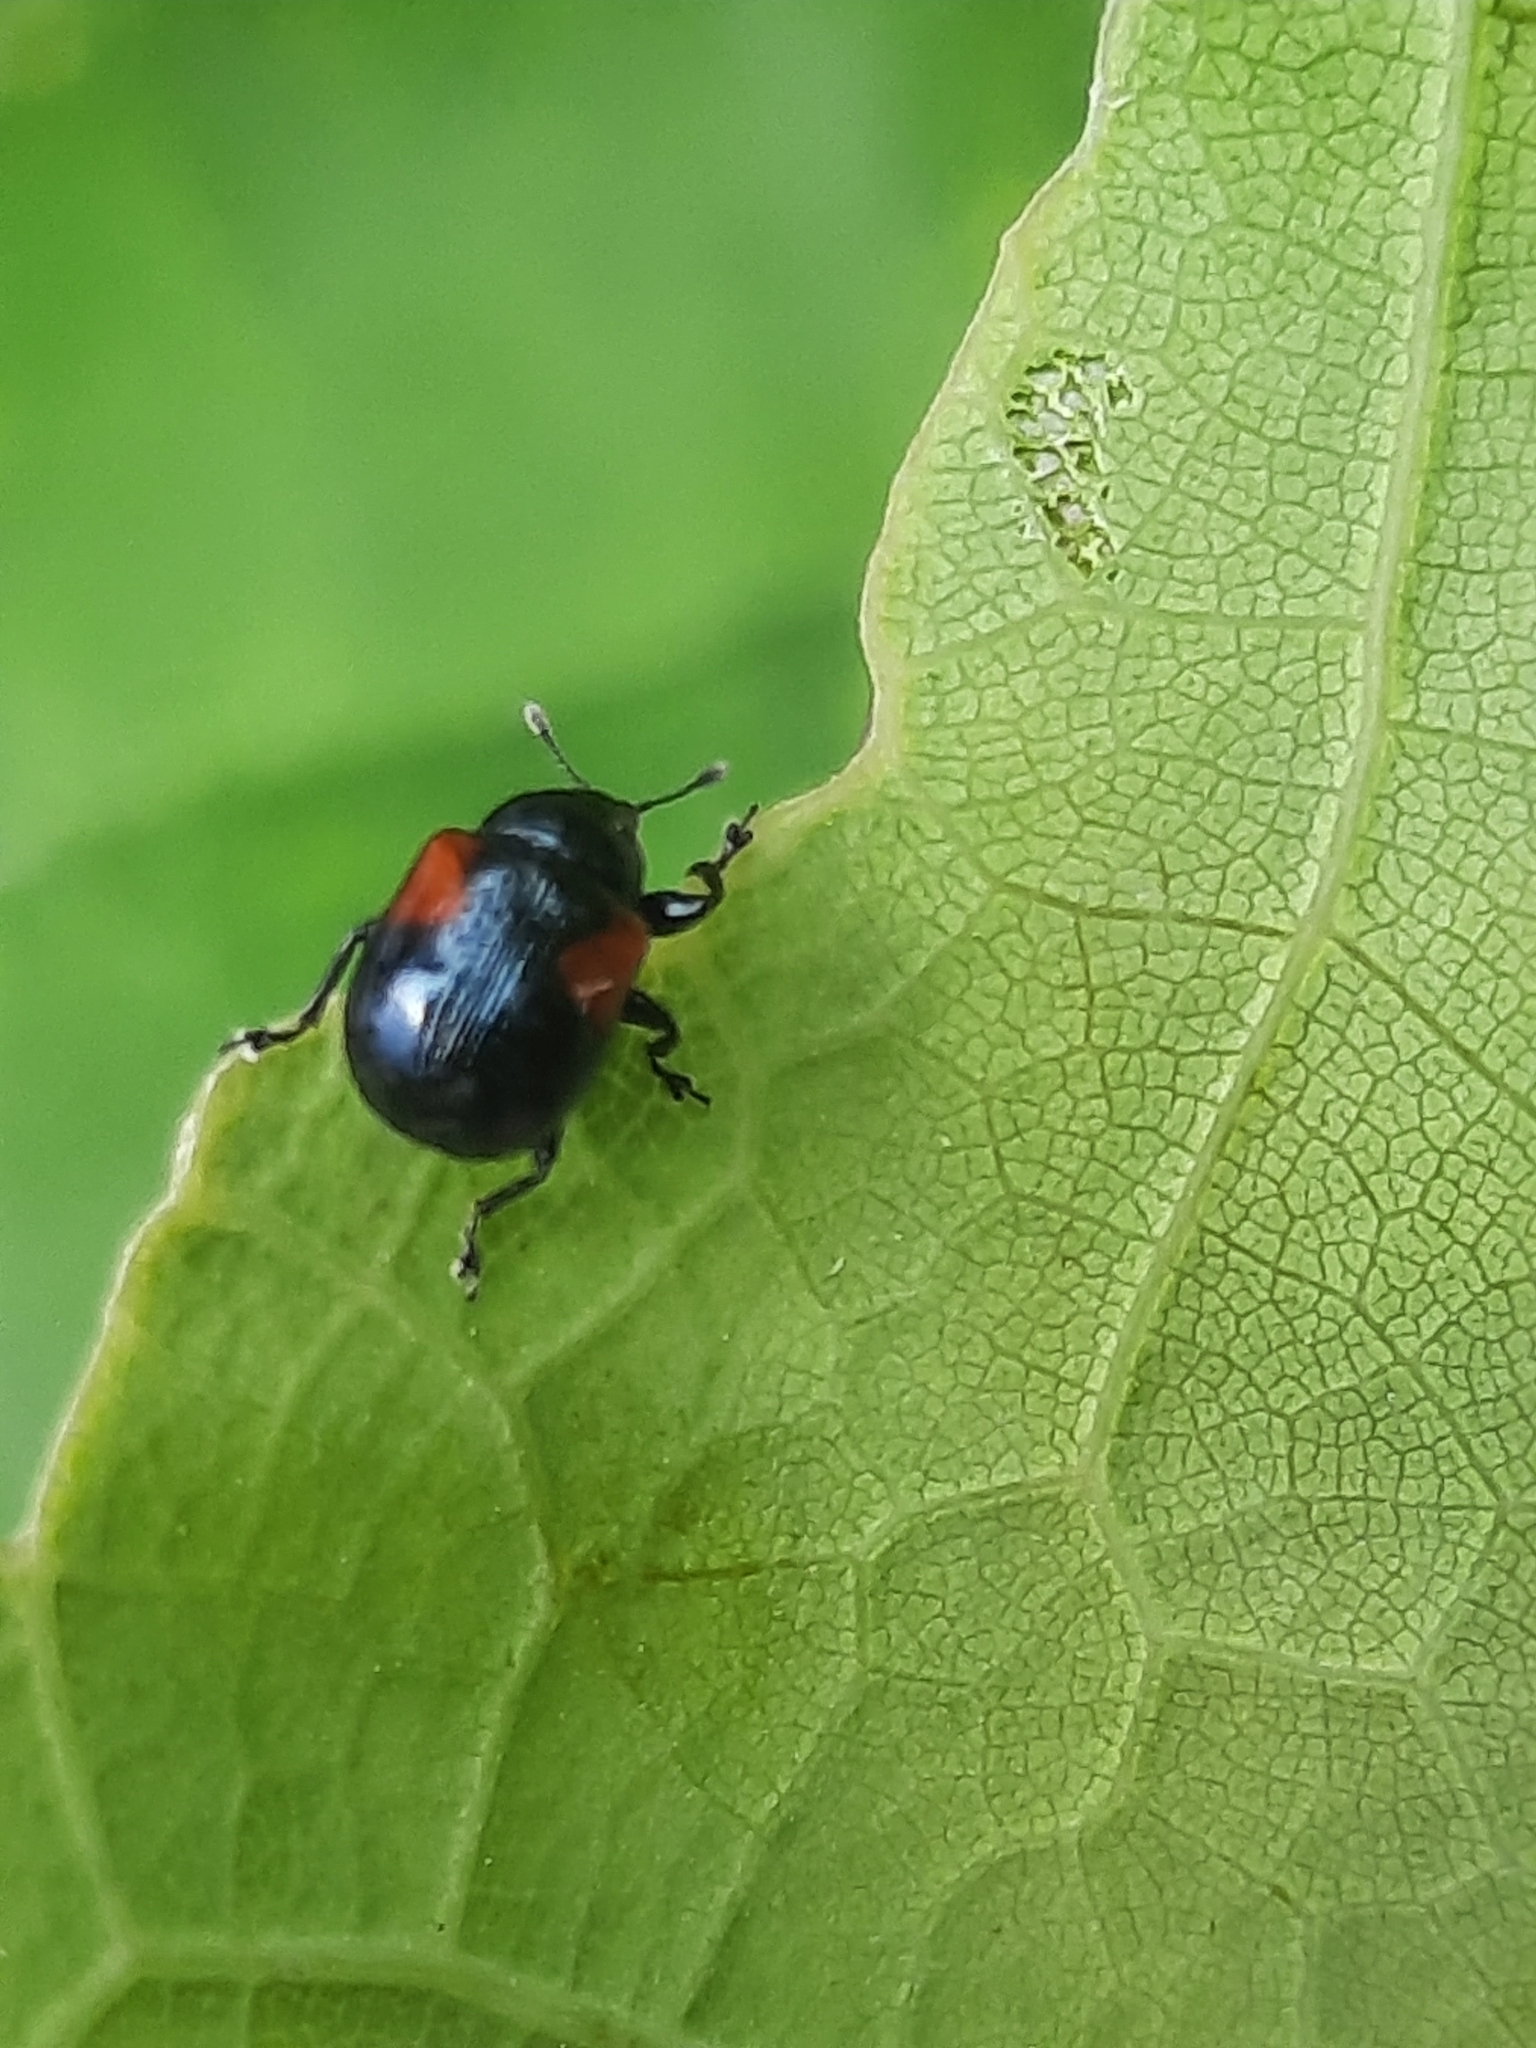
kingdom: Animalia
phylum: Arthropoda
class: Insecta
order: Coleoptera
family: Attelabidae
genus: Attelabus
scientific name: Attelabus bipustulatus
